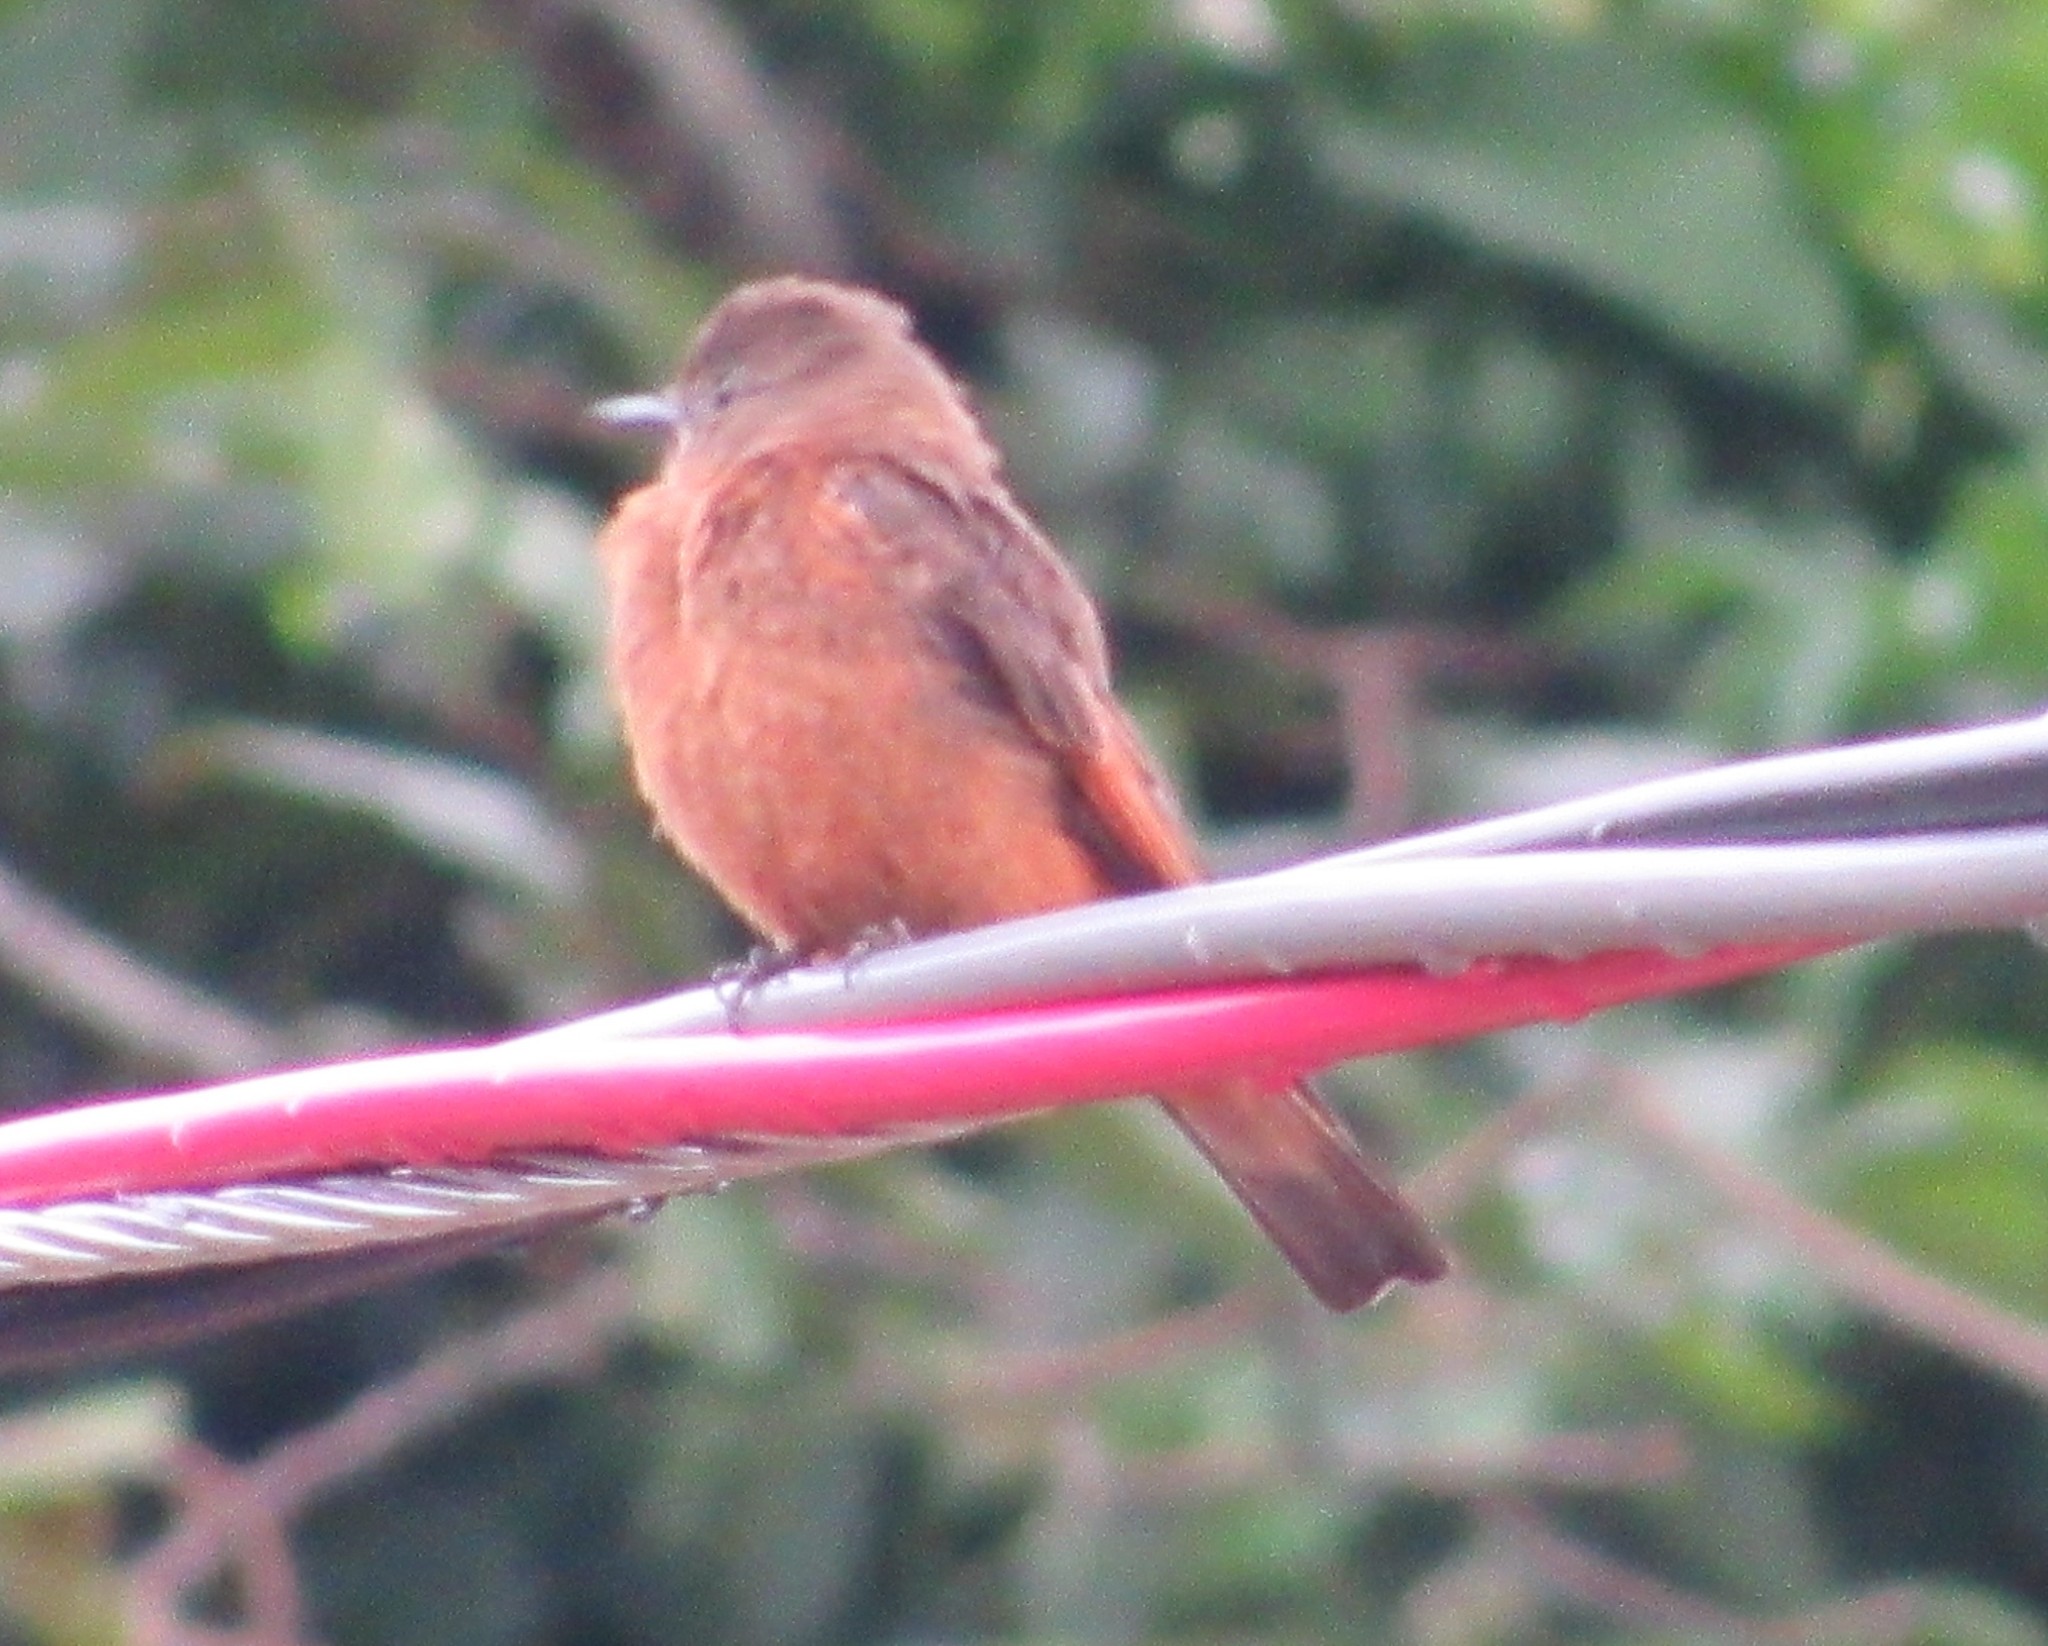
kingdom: Animalia
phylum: Chordata
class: Aves
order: Passeriformes
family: Tyrannidae
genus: Hirundinea
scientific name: Hirundinea ferruginea
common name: Cliff flycatcher
